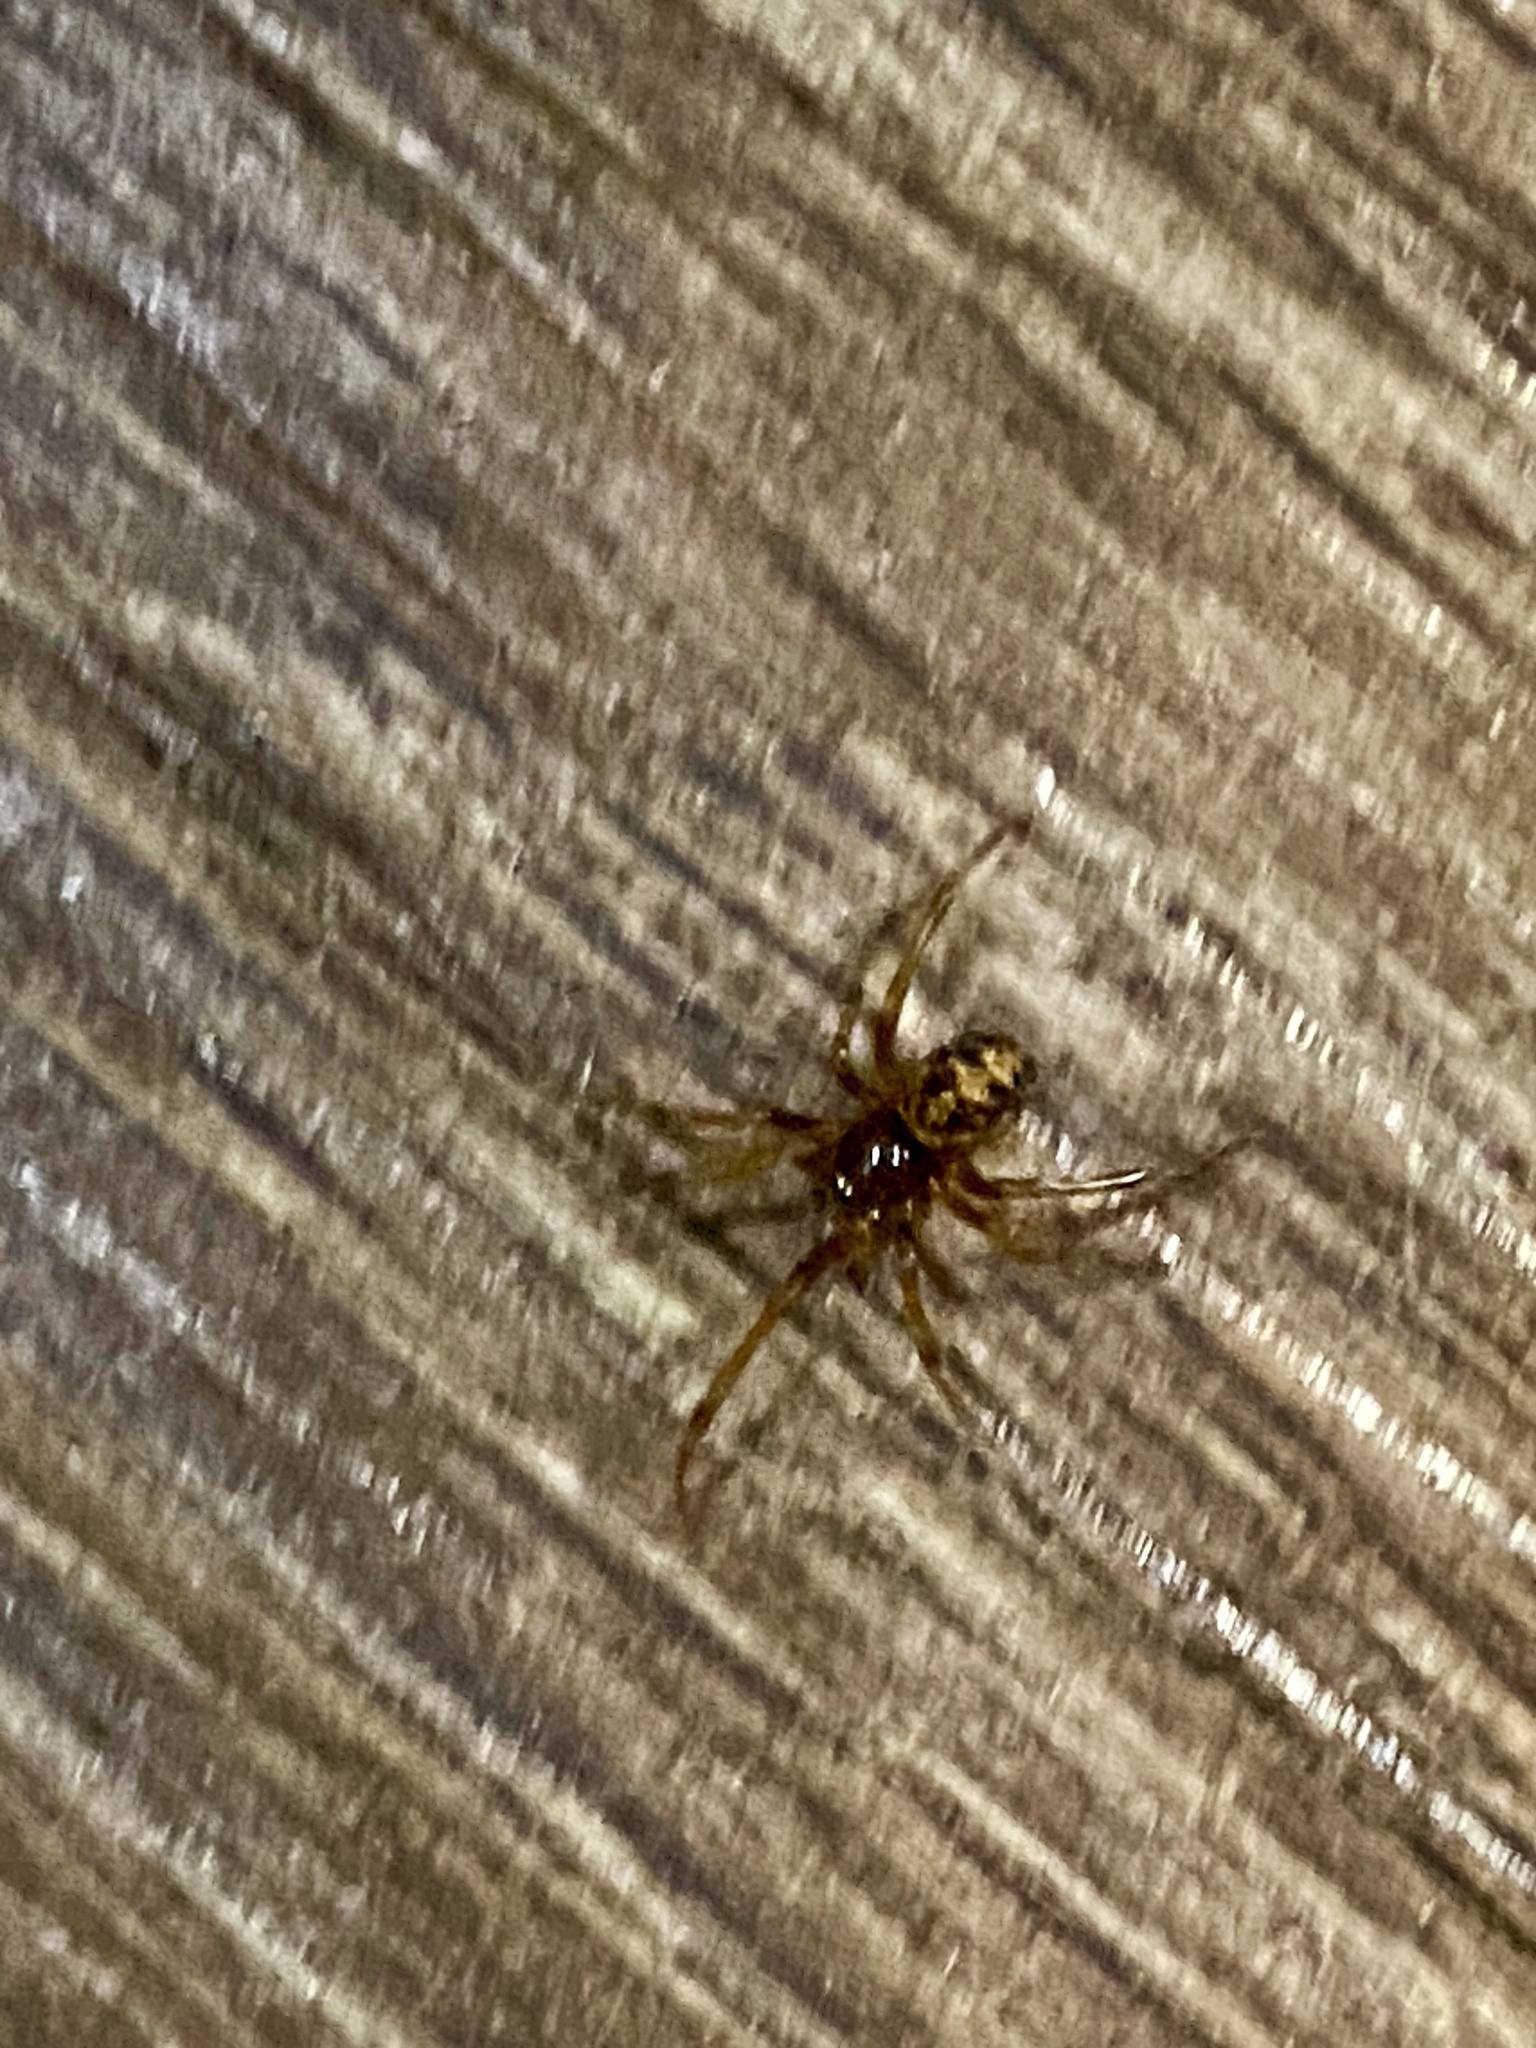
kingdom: Animalia
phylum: Arthropoda
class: Arachnida
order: Araneae
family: Theridiidae
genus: Steatoda
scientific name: Steatoda triangulosa
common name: Triangulate bud spider
